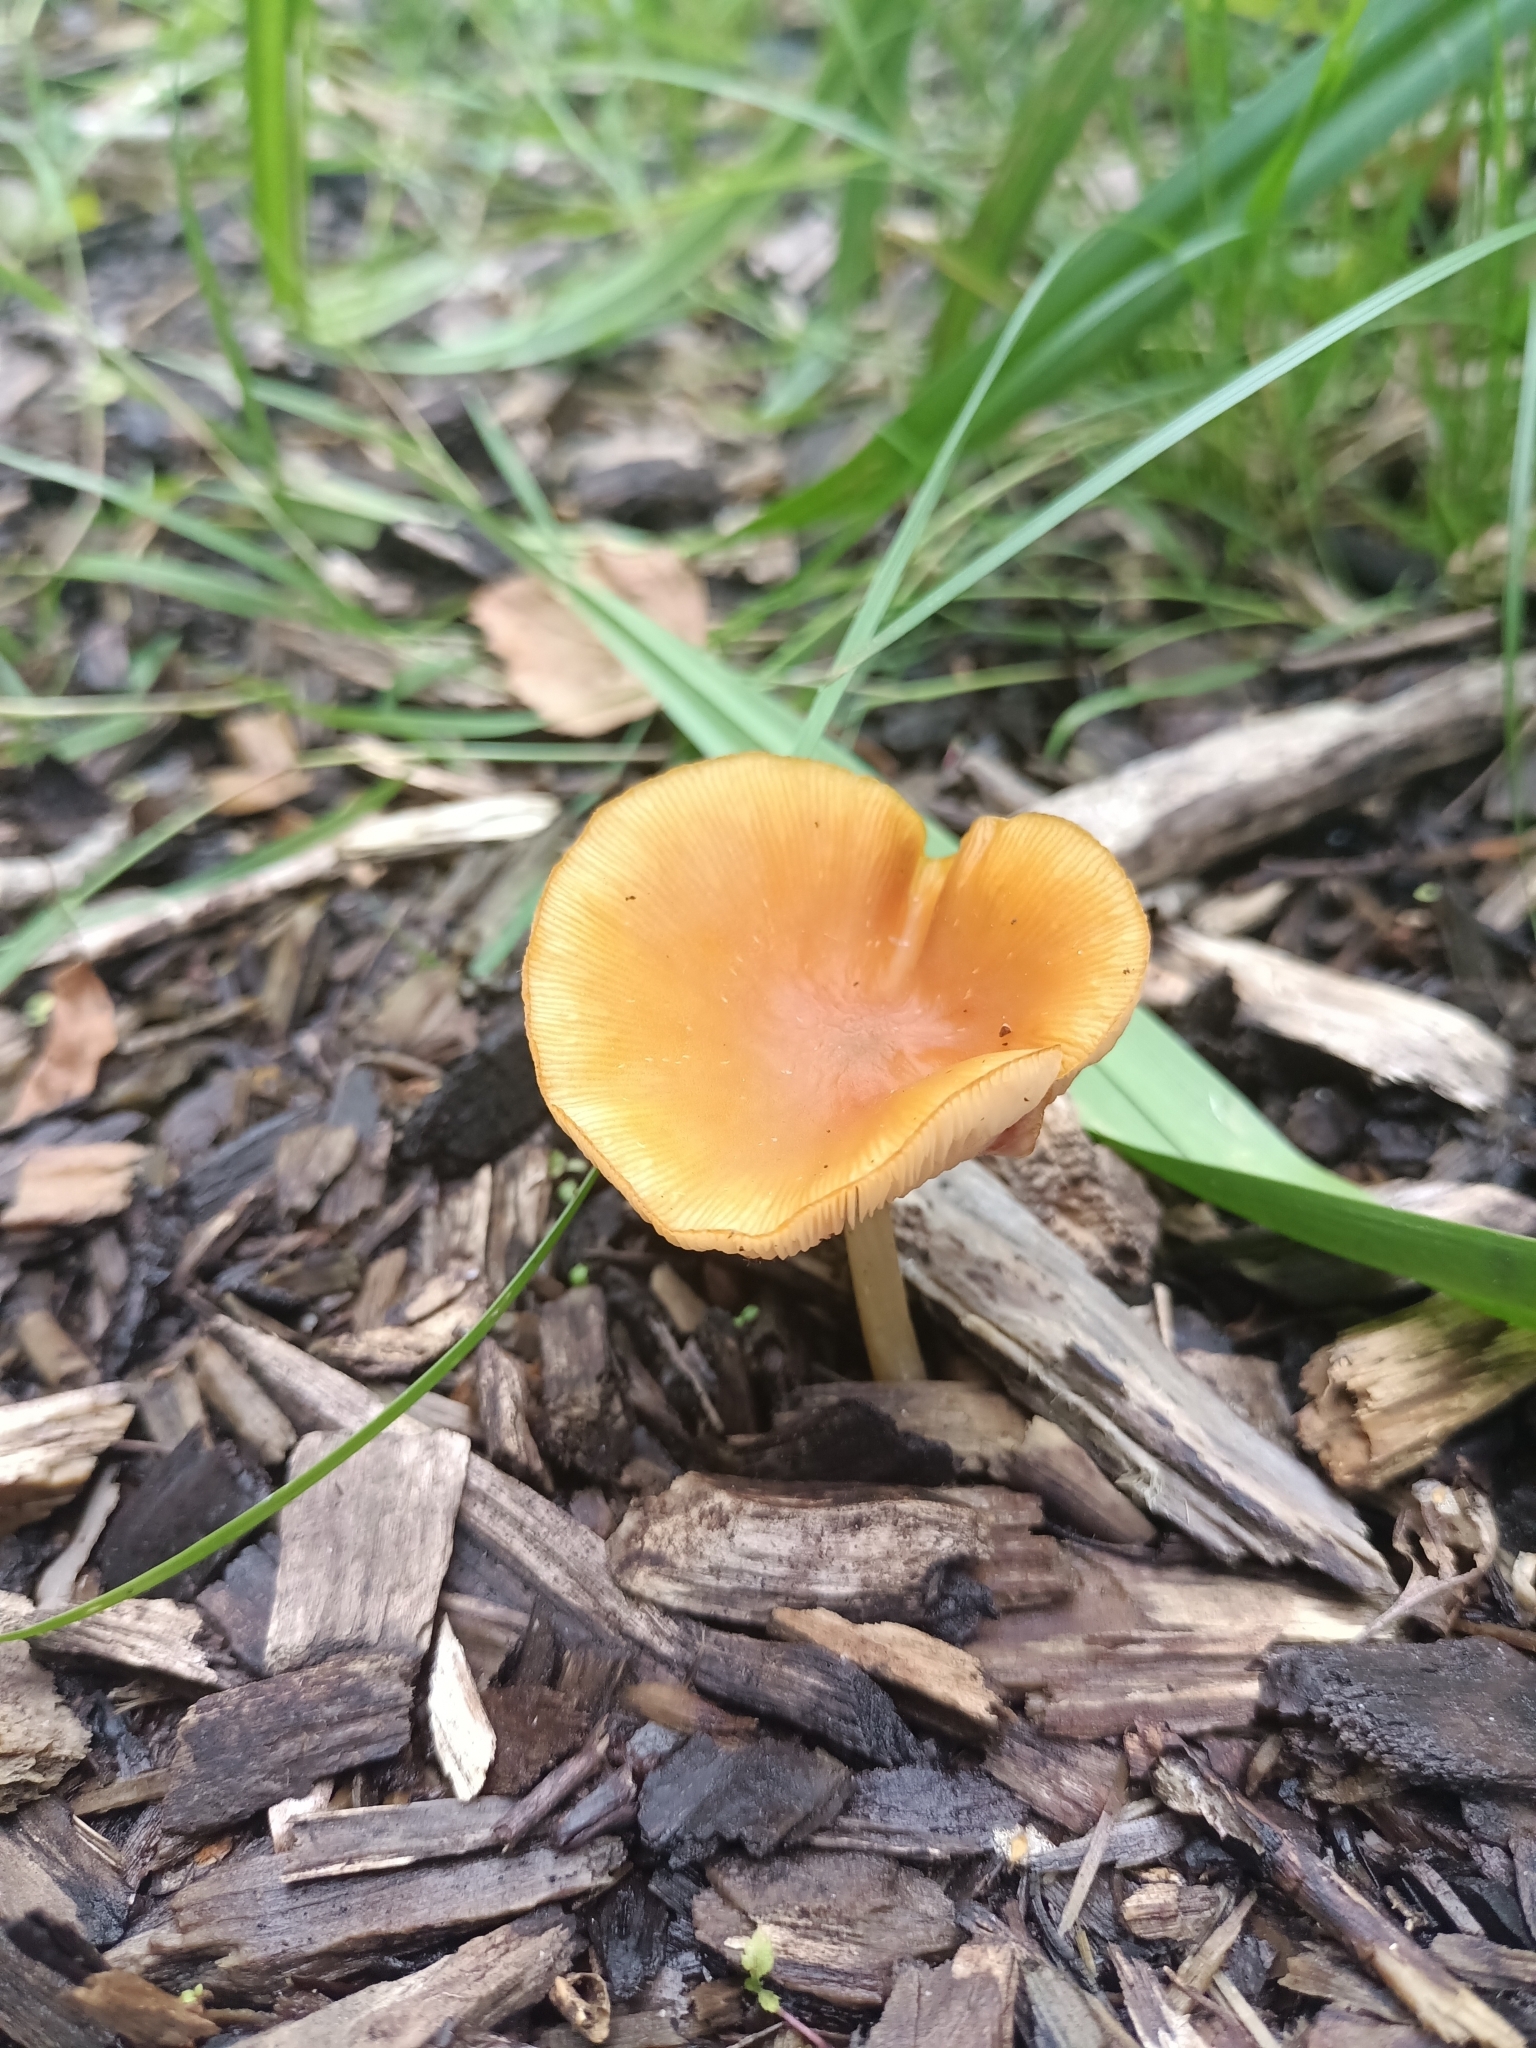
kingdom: Fungi
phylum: Basidiomycota
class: Agaricomycetes
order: Agaricales
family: Pluteaceae
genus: Pluteus
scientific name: Pluteus chrysophaeus
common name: Yellow shield
